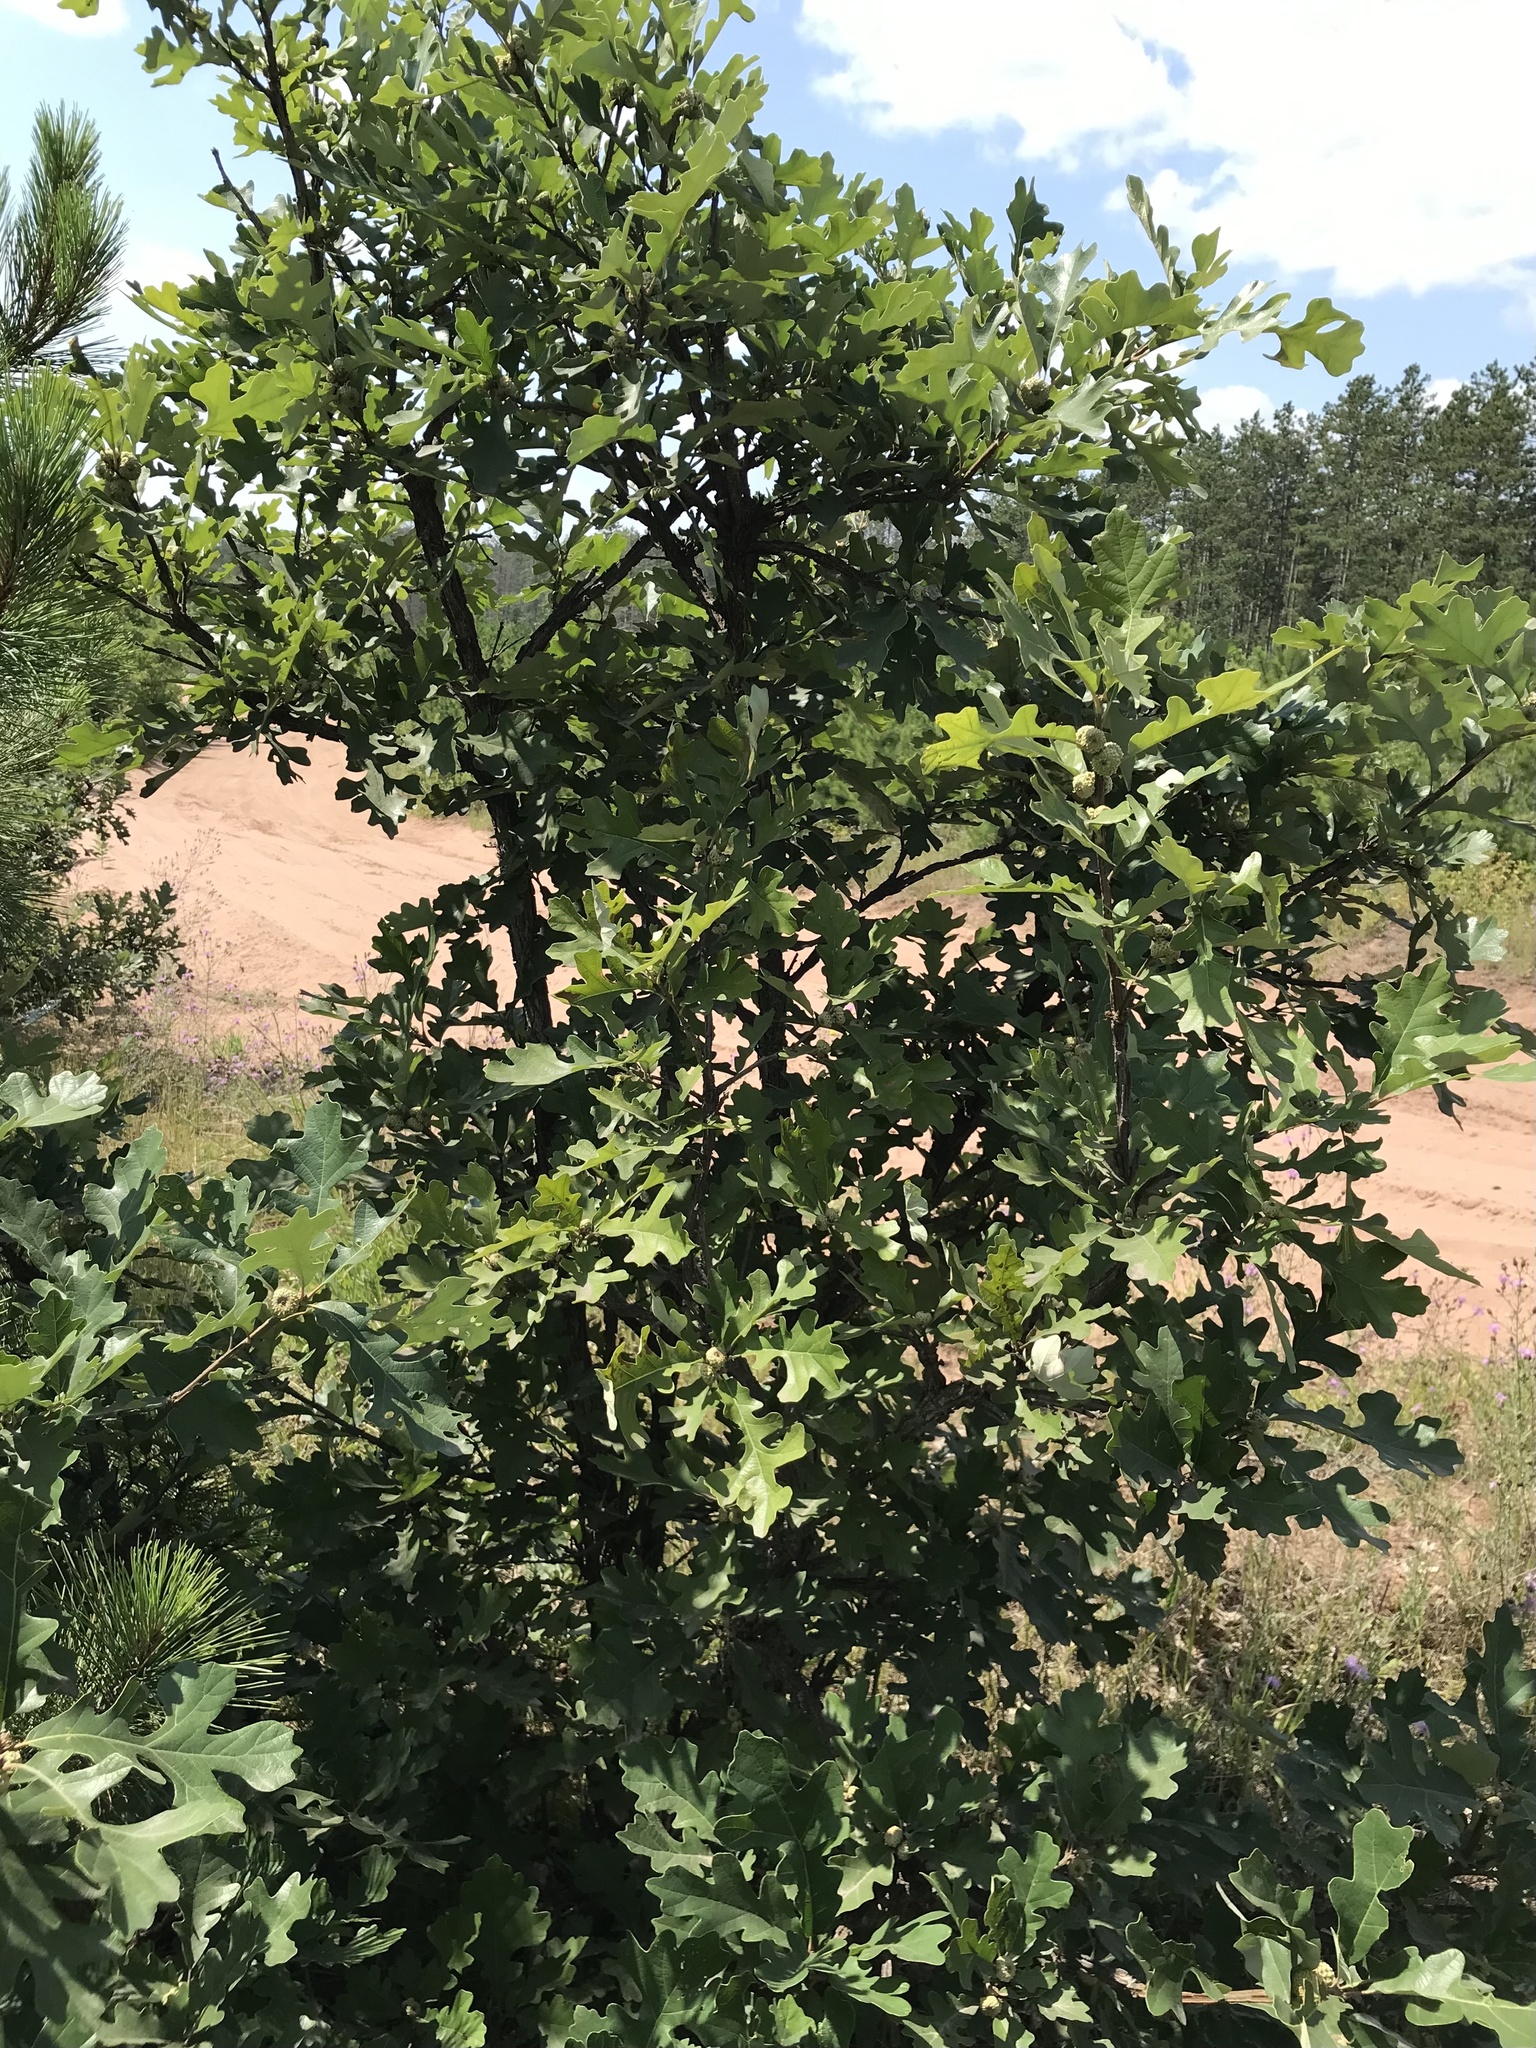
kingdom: Plantae
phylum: Tracheophyta
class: Magnoliopsida
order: Fagales
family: Fagaceae
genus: Quercus
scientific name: Quercus macrocarpa
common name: Bur oak
